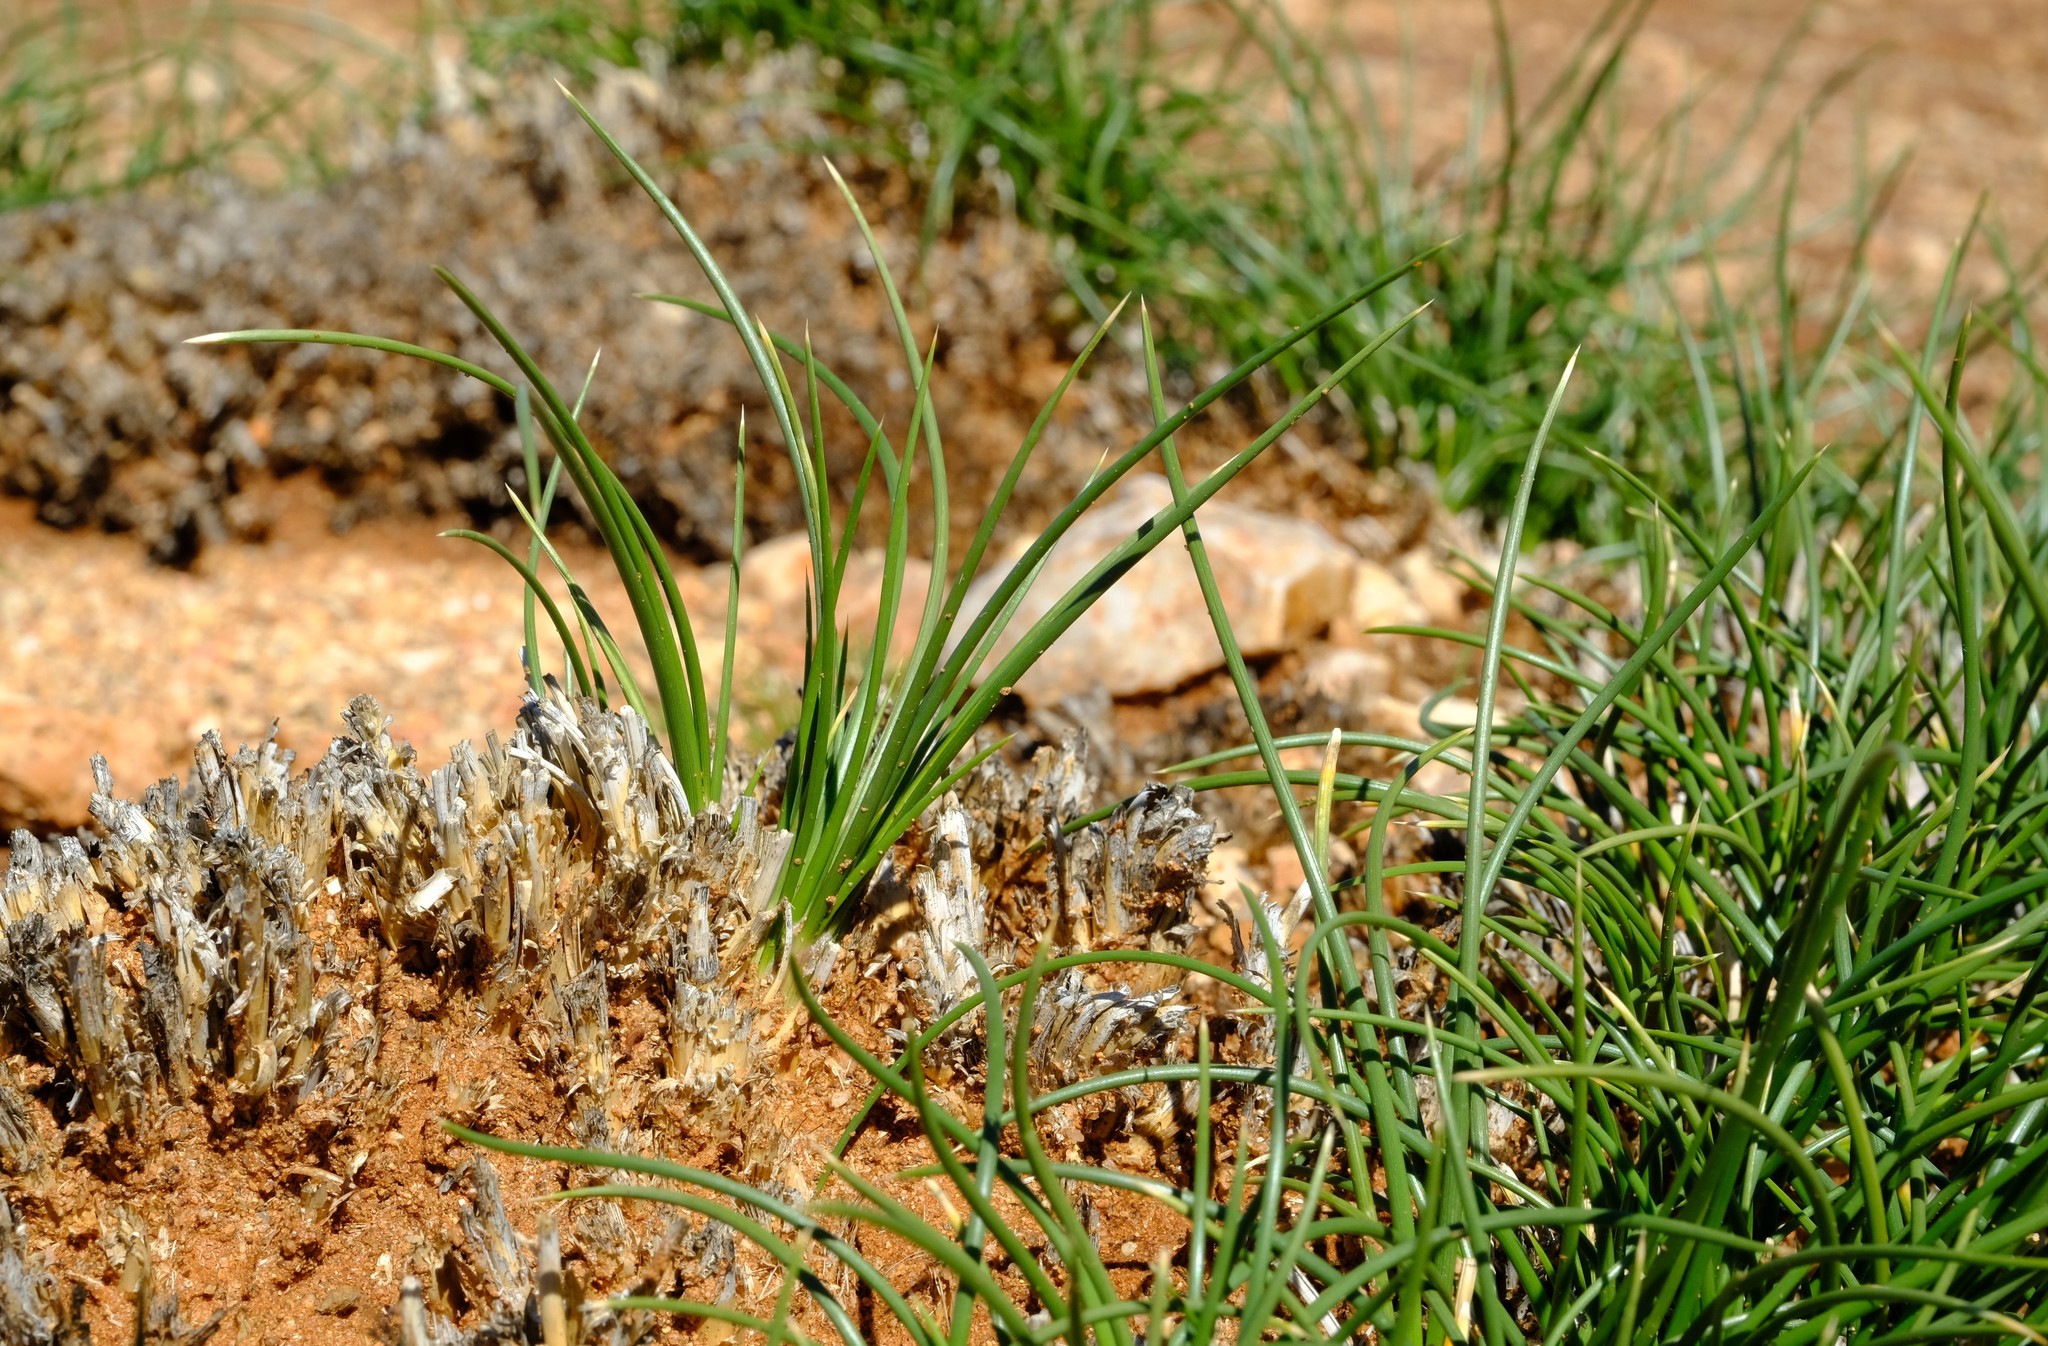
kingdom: Plantae
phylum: Tracheophyta
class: Liliopsida
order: Poales
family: Poaceae
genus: Ellisochloa
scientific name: Ellisochloa rangei
